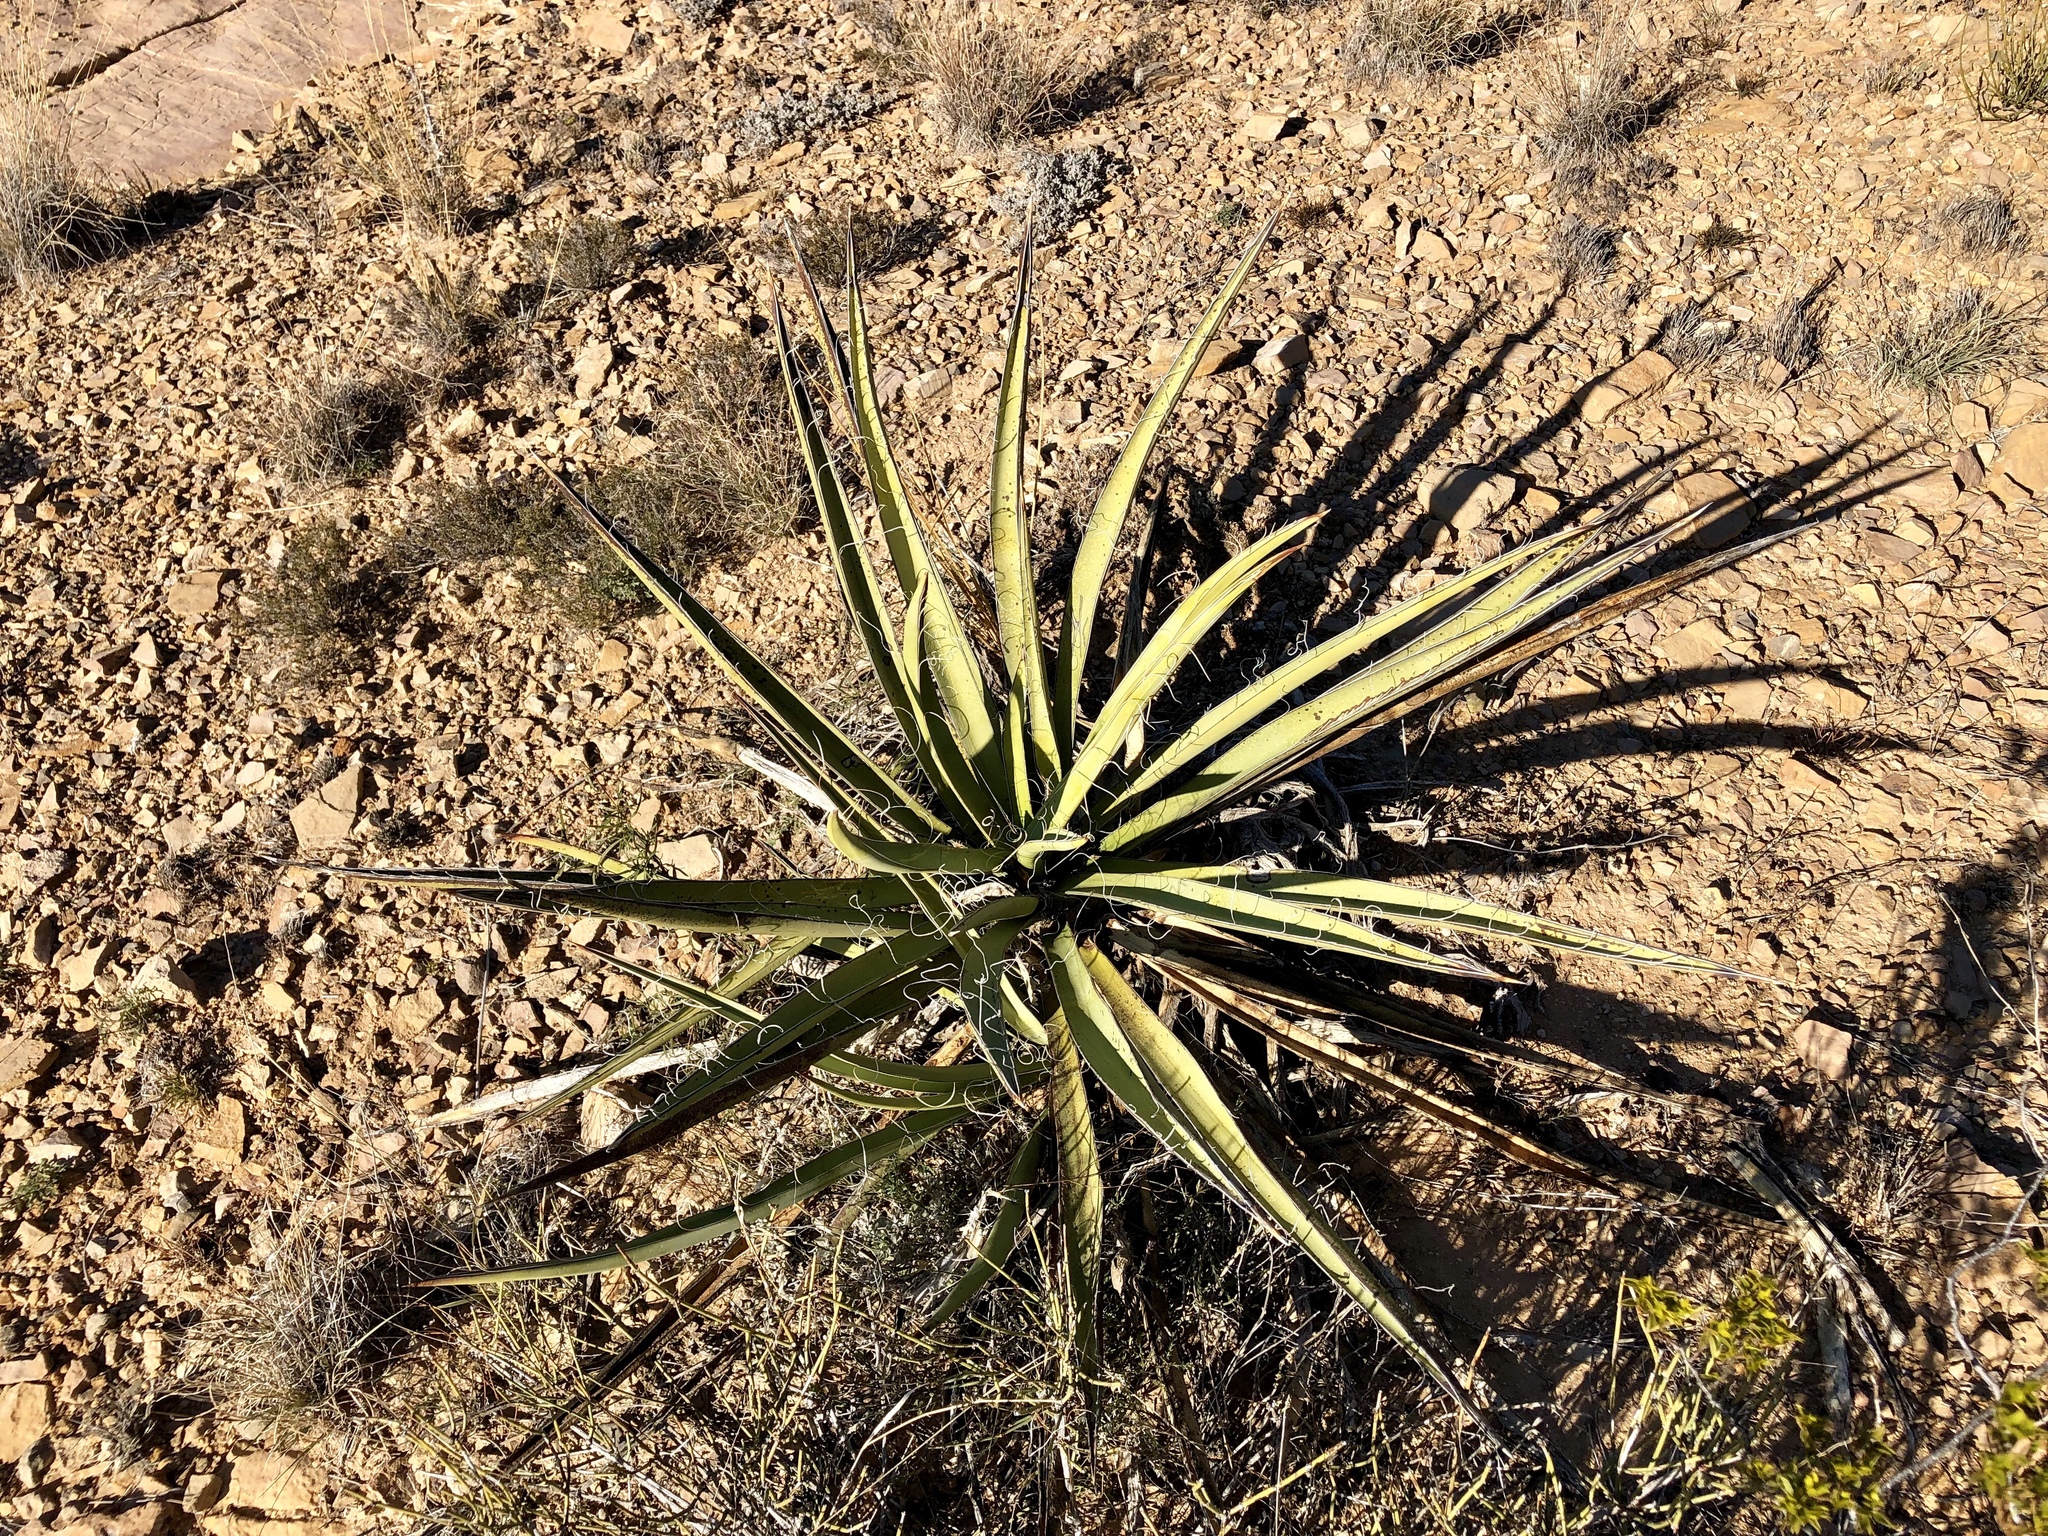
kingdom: Plantae
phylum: Tracheophyta
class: Liliopsida
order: Asparagales
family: Asparagaceae
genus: Yucca
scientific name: Yucca baccata
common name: Banana yucca
